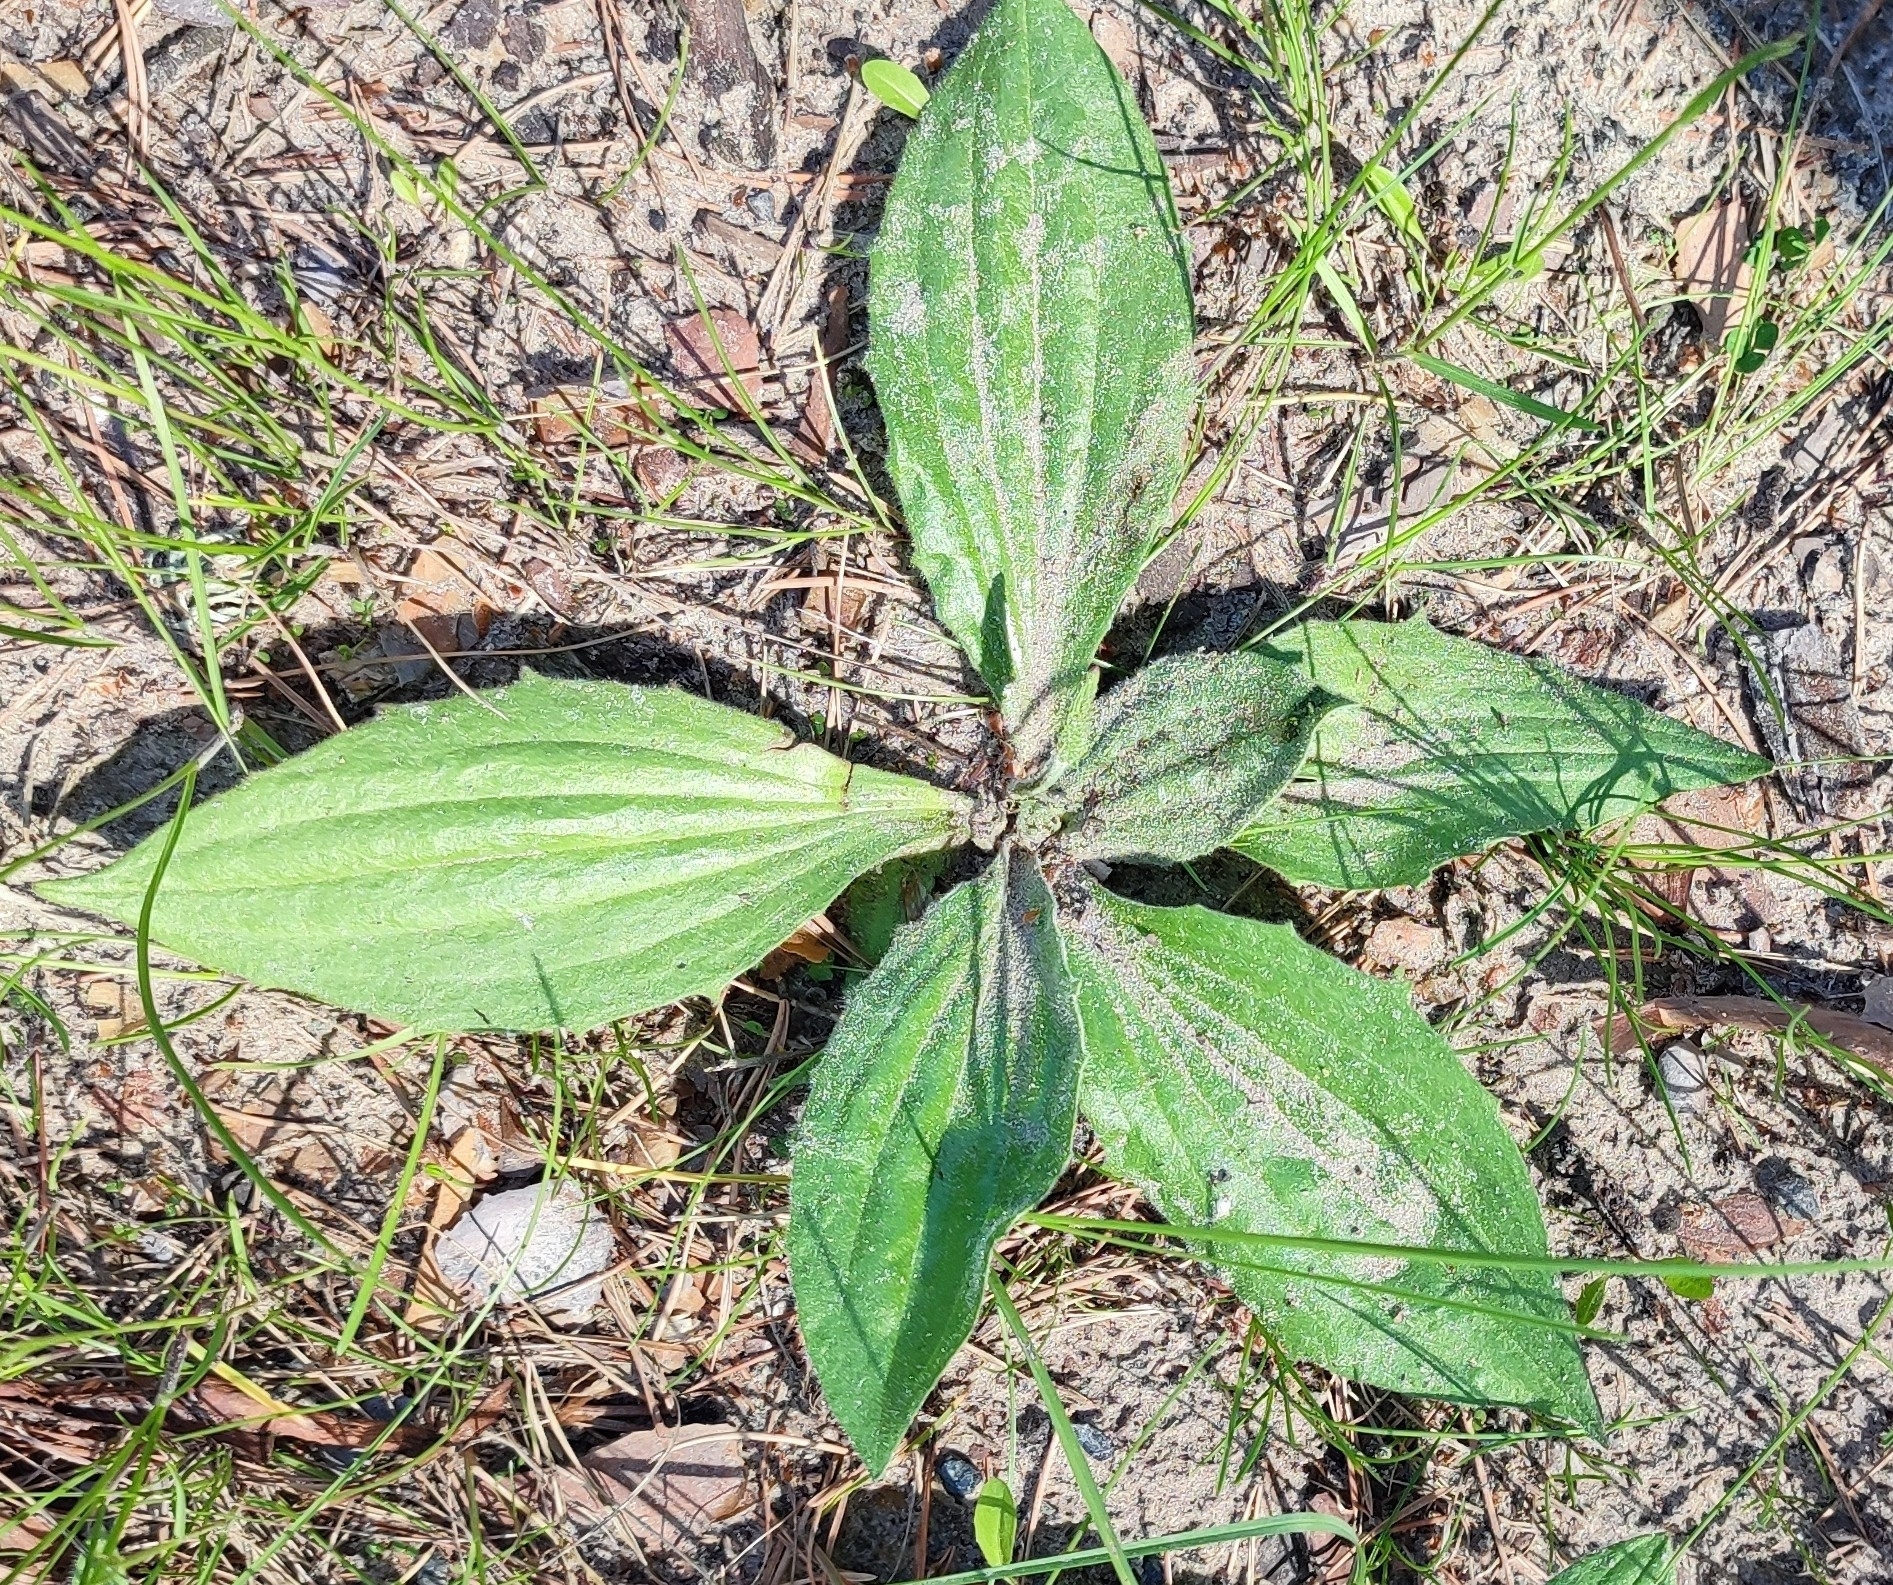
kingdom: Plantae
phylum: Tracheophyta
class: Magnoliopsida
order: Lamiales
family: Plantaginaceae
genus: Plantago
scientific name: Plantago depressa
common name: Depressed plantain
